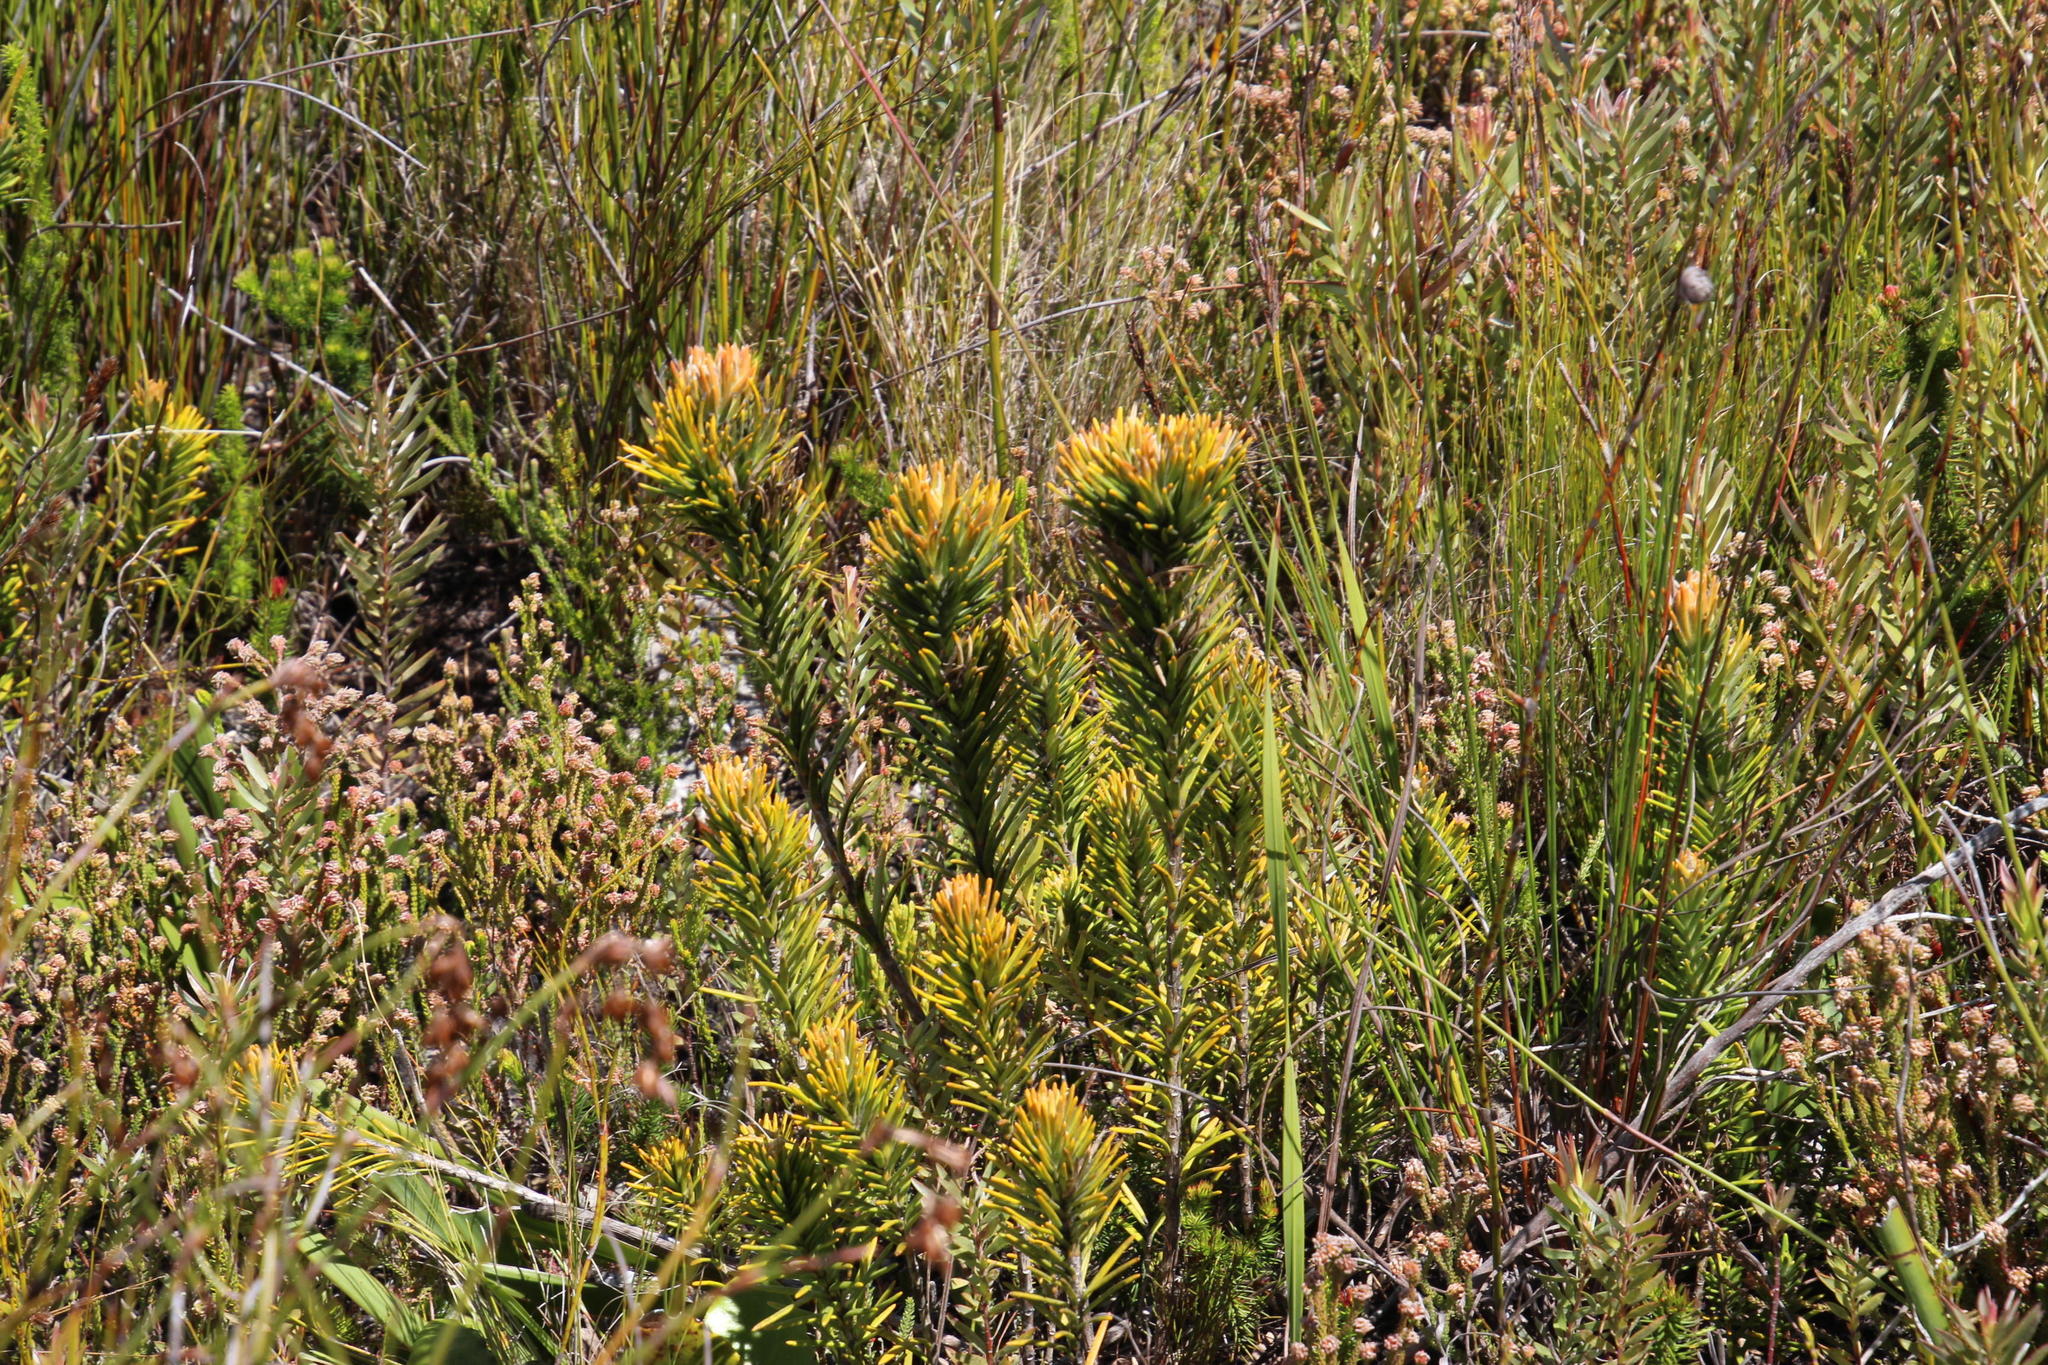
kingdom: Plantae
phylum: Tracheophyta
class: Magnoliopsida
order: Lamiales
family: Stilbaceae
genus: Retzia
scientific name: Retzia capensis
